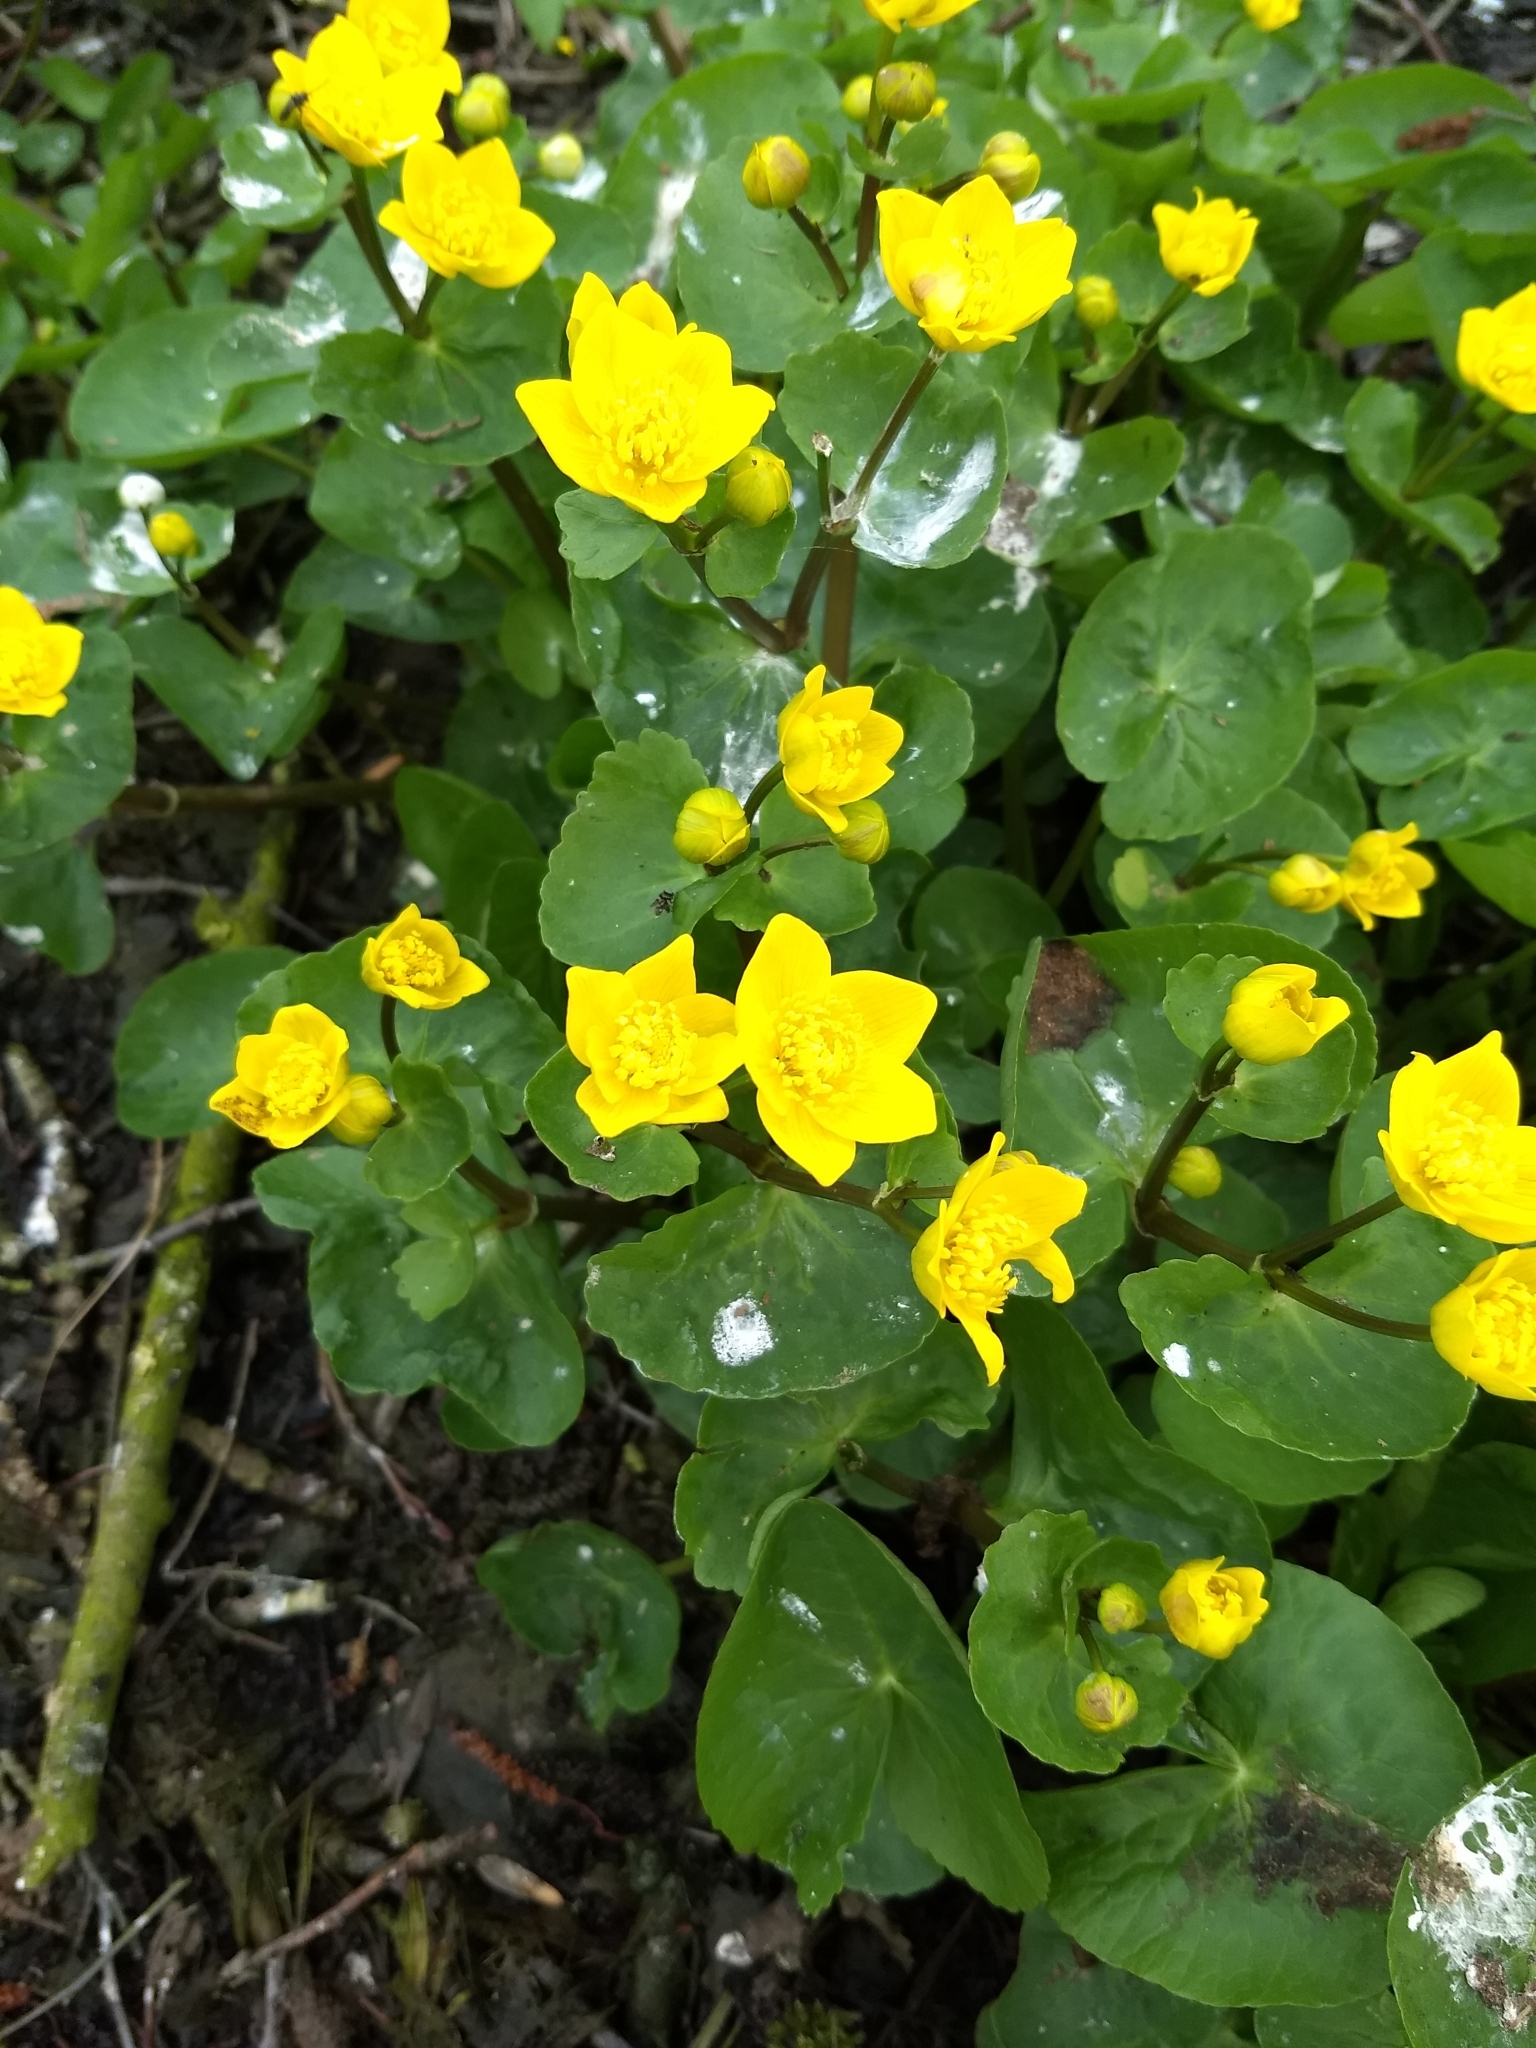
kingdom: Plantae
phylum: Tracheophyta
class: Magnoliopsida
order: Ranunculales
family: Ranunculaceae
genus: Caltha
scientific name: Caltha palustris
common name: Marsh marigold
